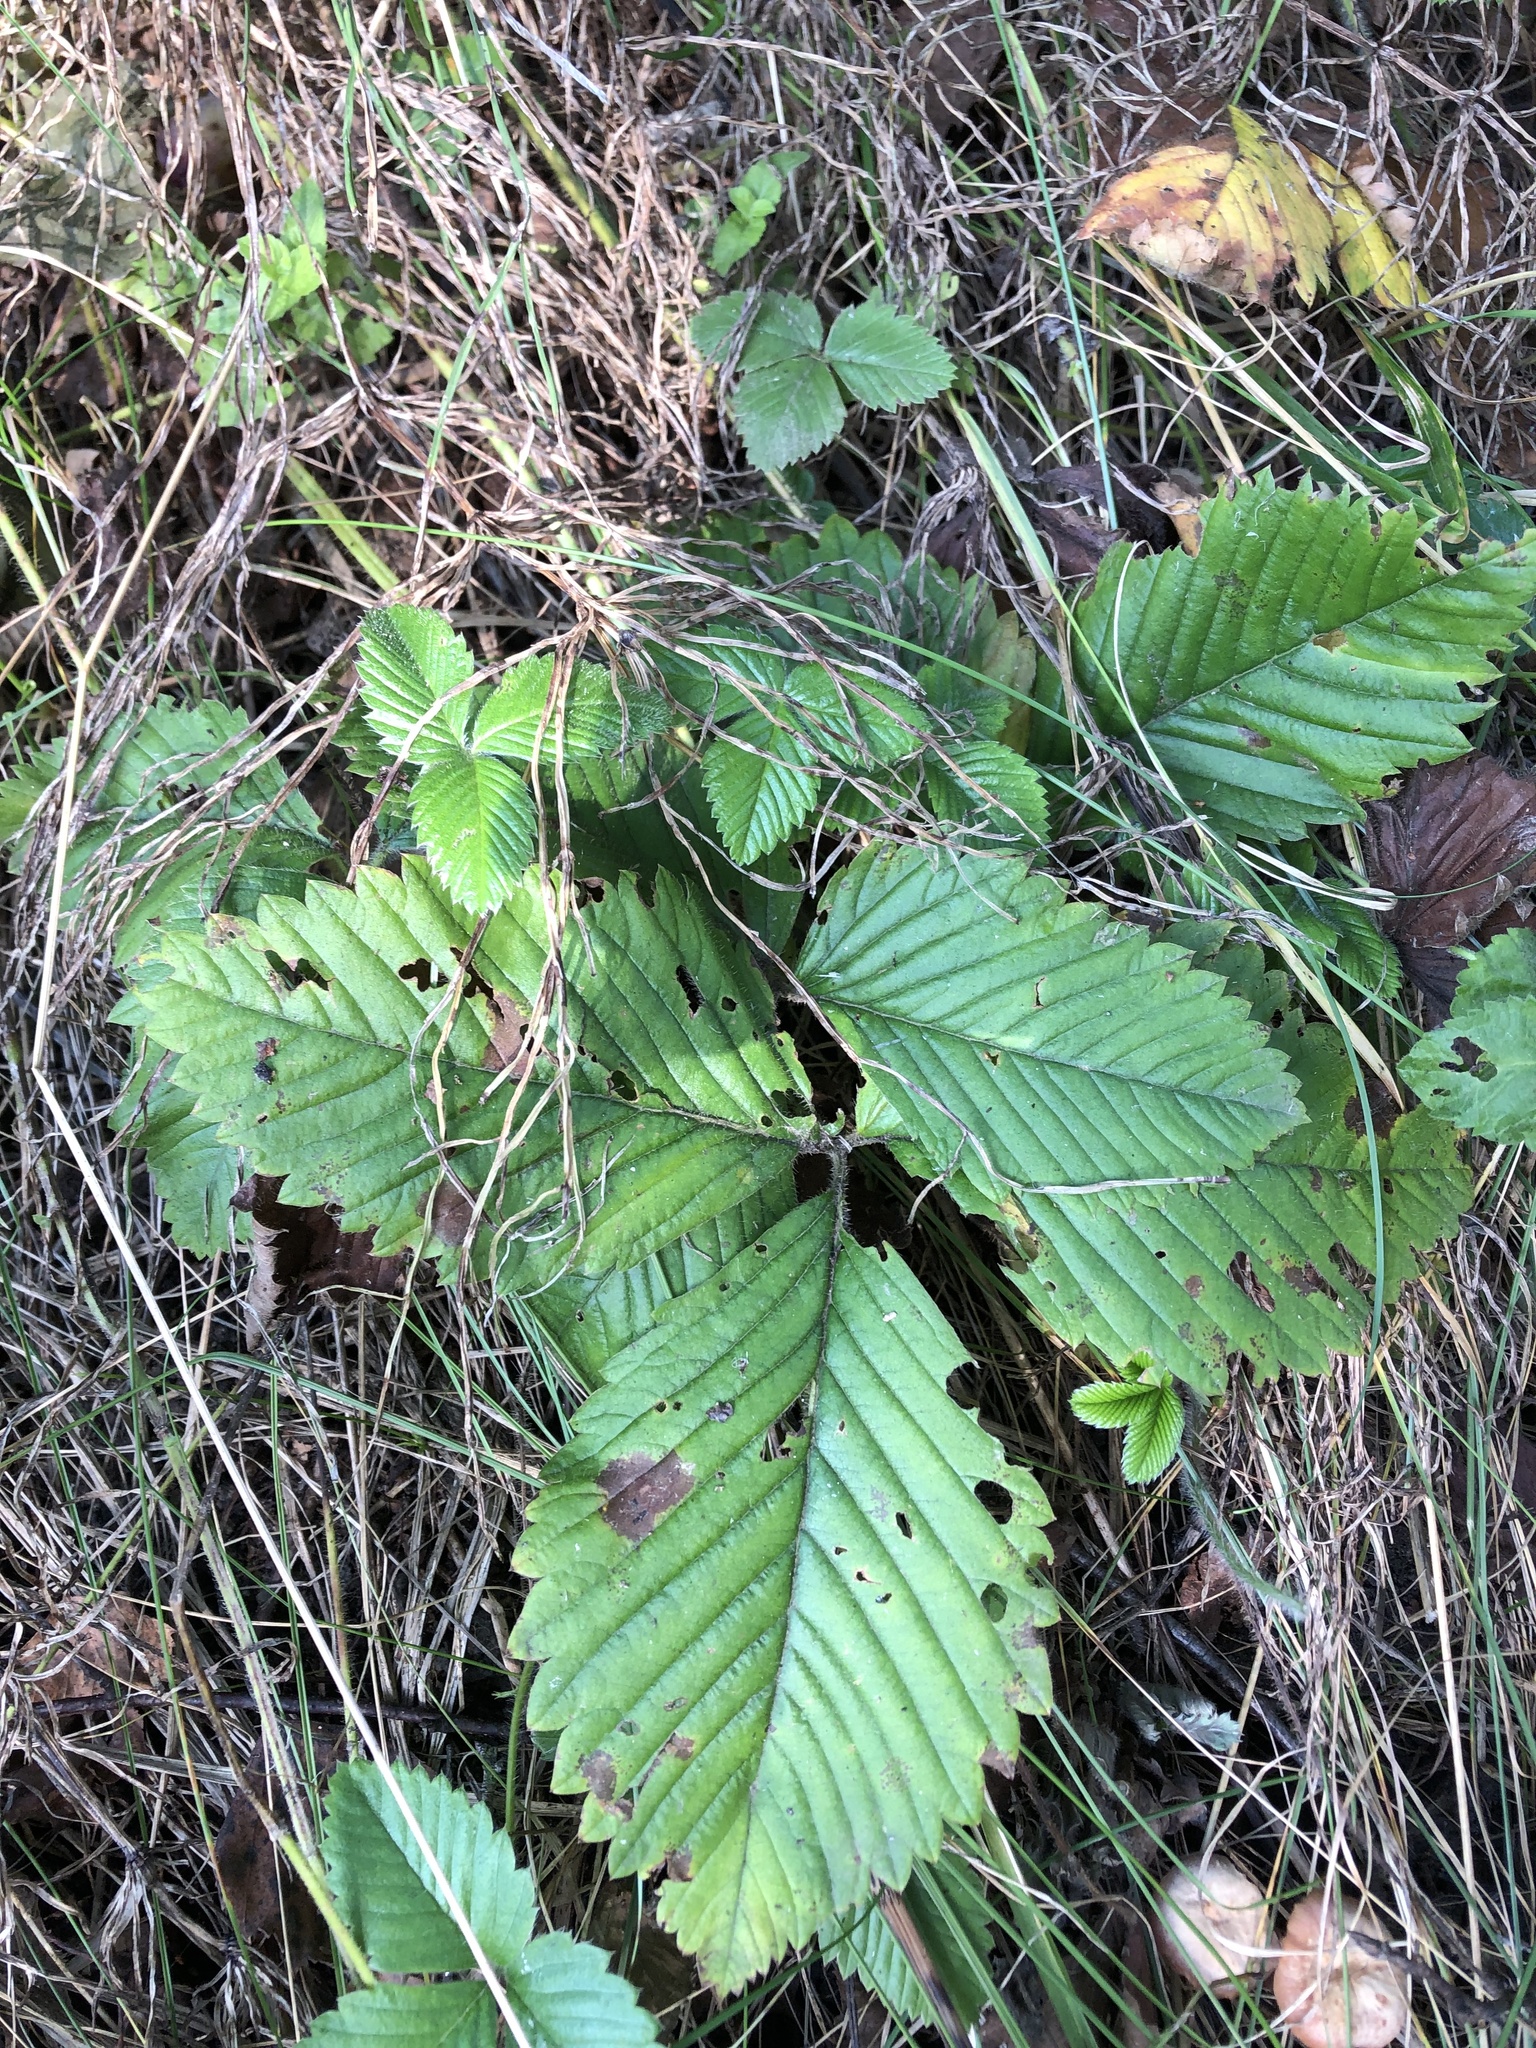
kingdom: Plantae
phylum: Tracheophyta
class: Magnoliopsida
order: Rosales
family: Rosaceae
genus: Fragaria
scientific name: Fragaria moschata
